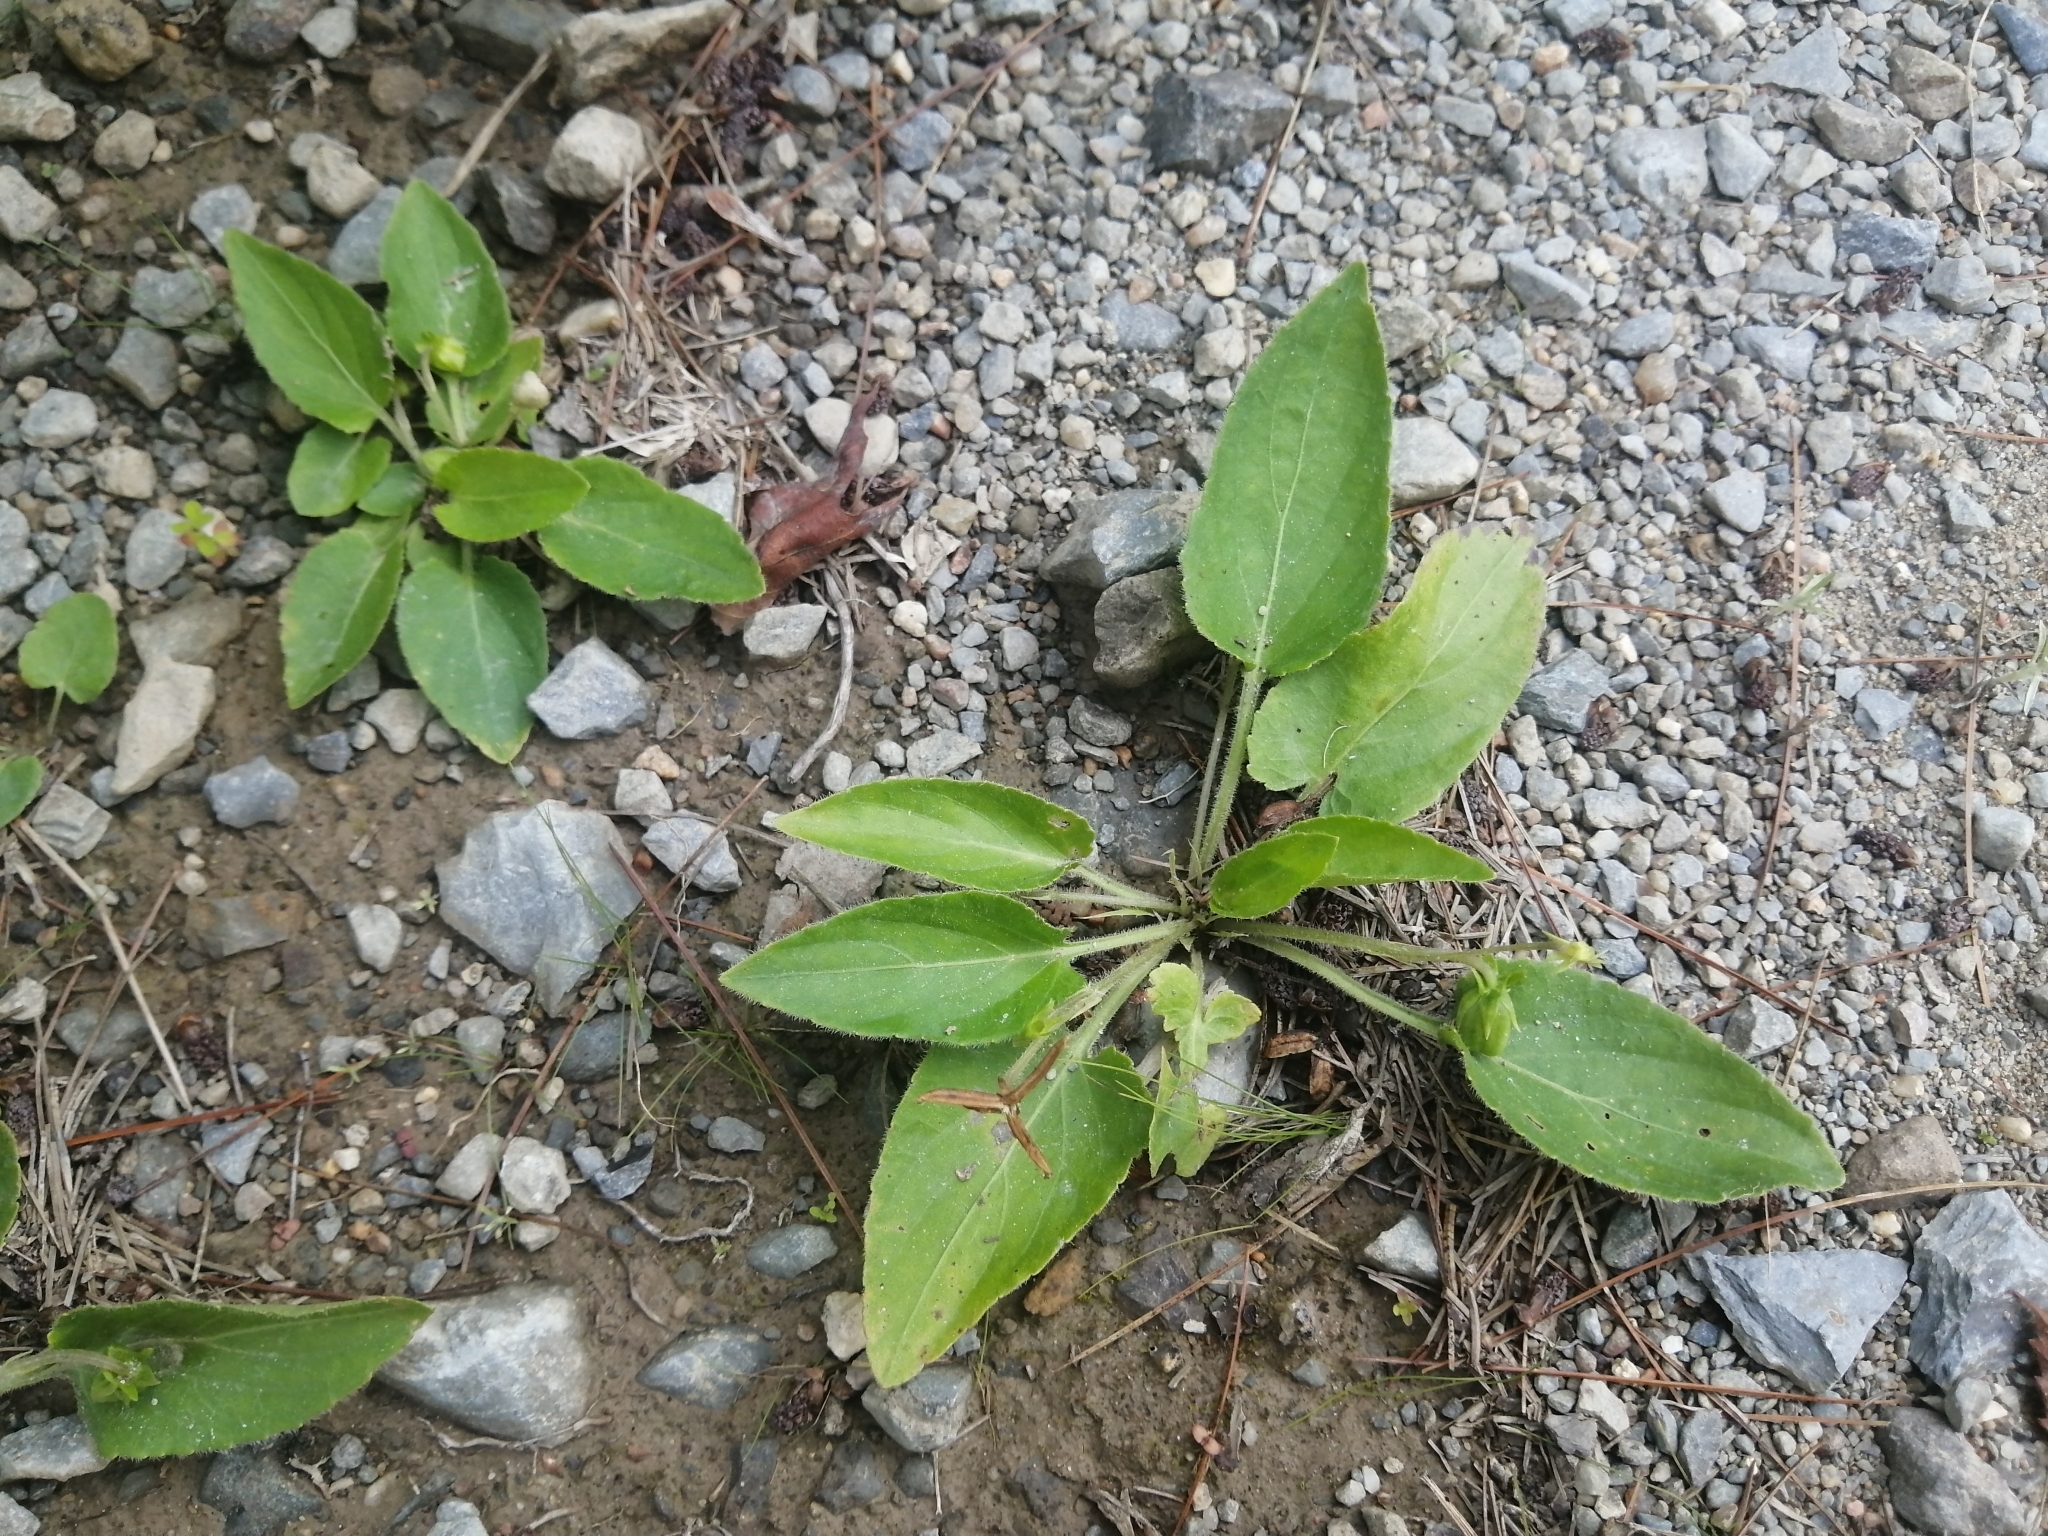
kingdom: Plantae
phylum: Tracheophyta
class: Magnoliopsida
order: Malpighiales
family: Violaceae
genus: Viola
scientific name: Viola sagittata
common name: Arrowhead violet
